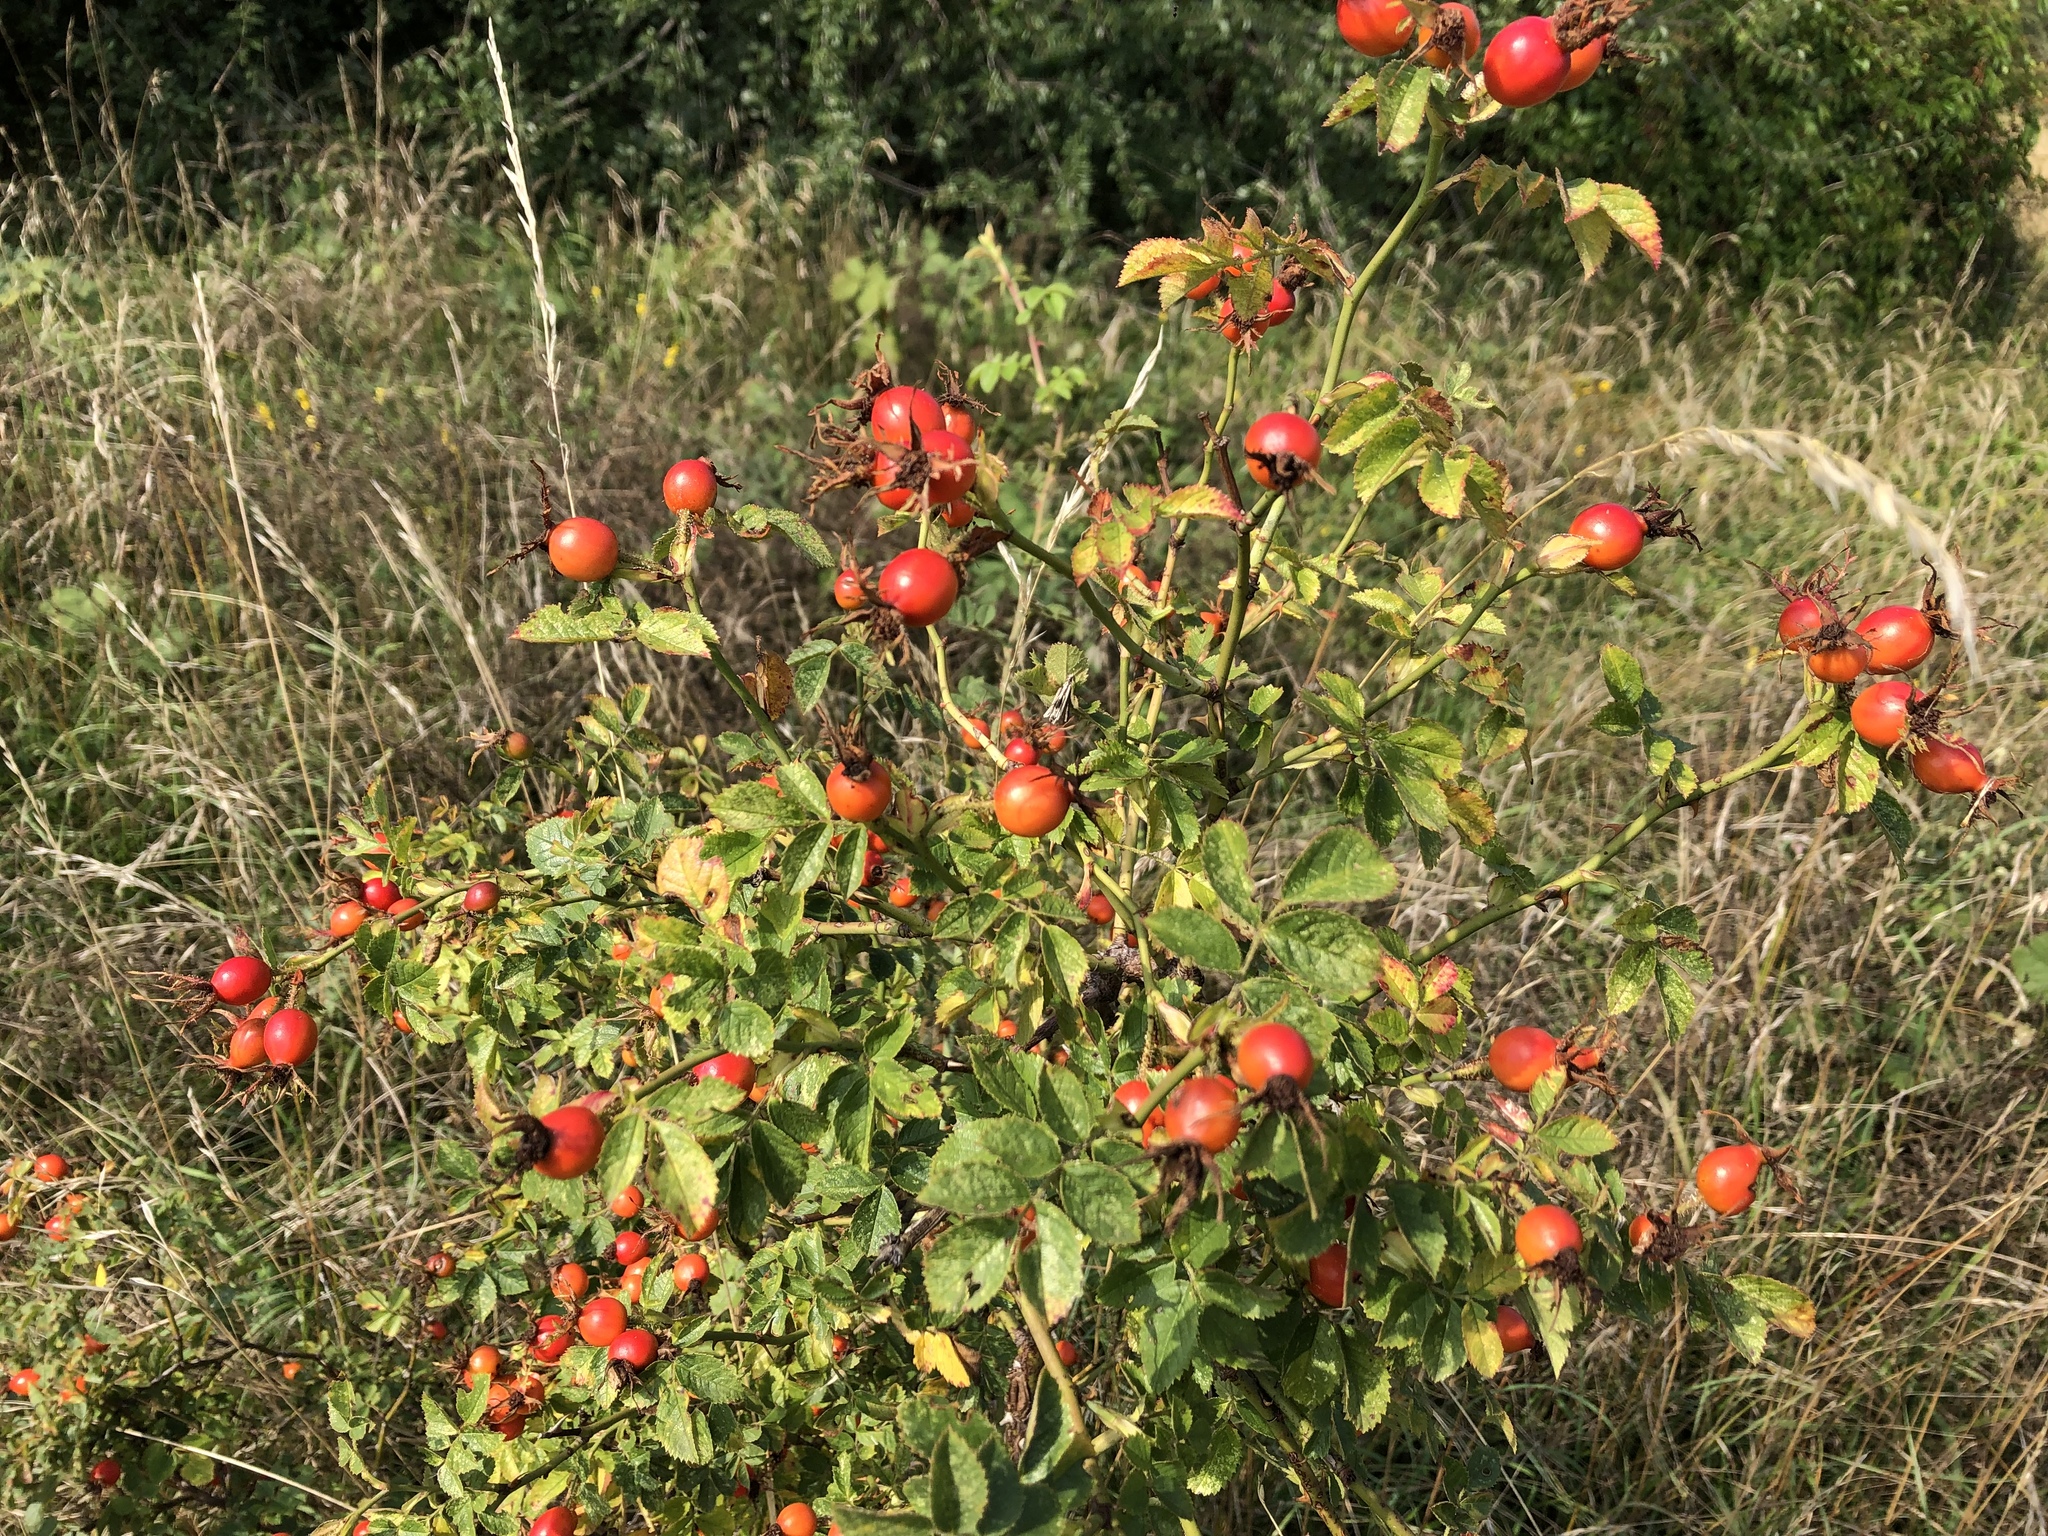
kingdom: Plantae
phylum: Tracheophyta
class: Magnoliopsida
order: Rosales
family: Rosaceae
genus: Rosa
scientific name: Rosa canina
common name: Dog rose
